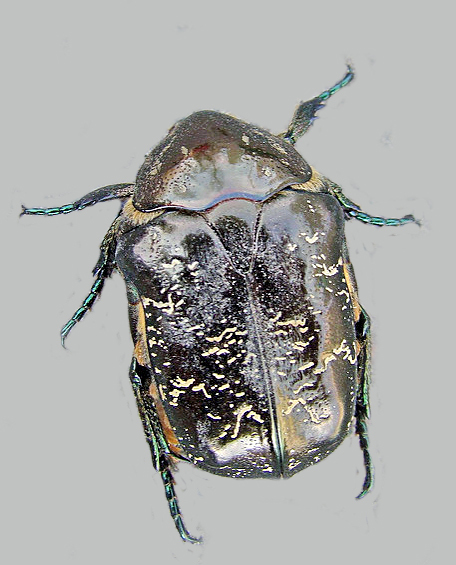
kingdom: Animalia
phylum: Arthropoda
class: Insecta
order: Coleoptera
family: Scarabaeidae
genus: Protaetia
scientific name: Protaetia marmorata
